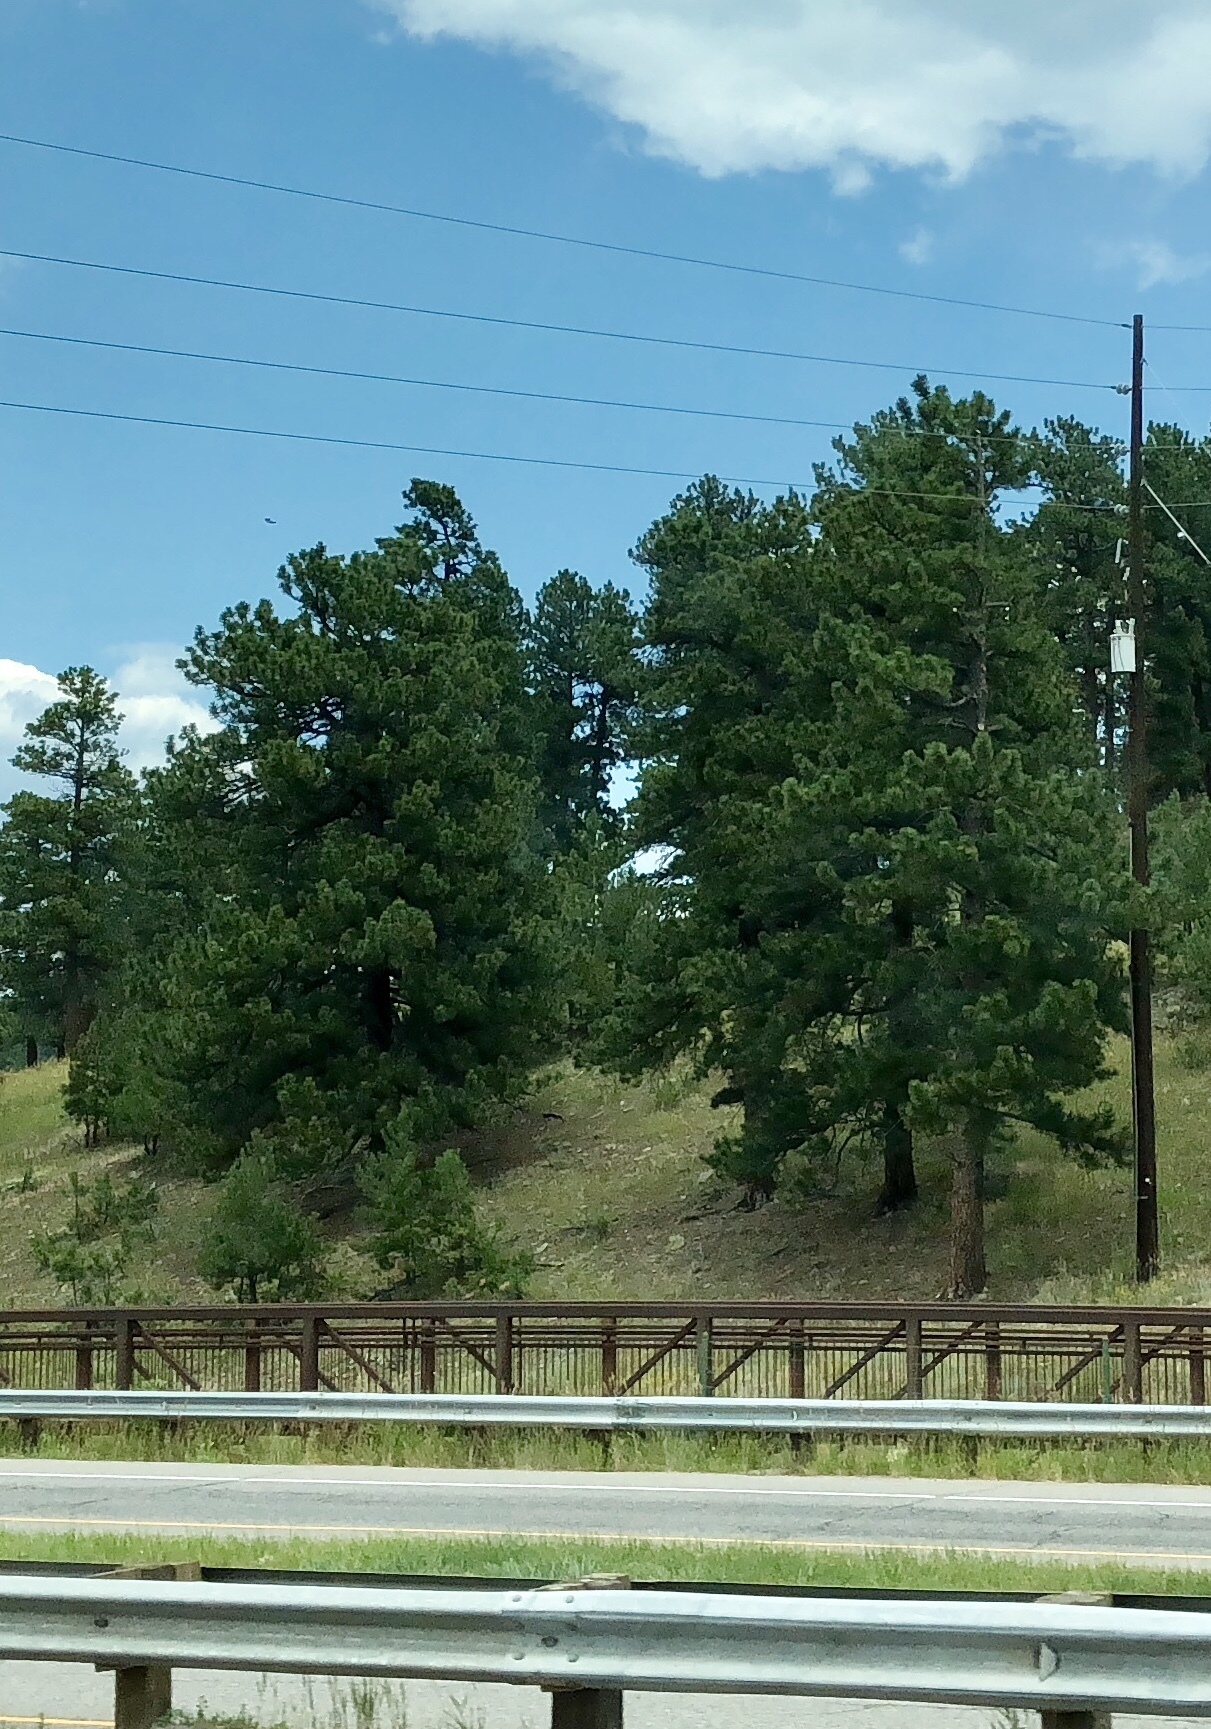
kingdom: Plantae
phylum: Tracheophyta
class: Pinopsida
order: Pinales
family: Pinaceae
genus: Pinus
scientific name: Pinus ponderosa
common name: Western yellow-pine
